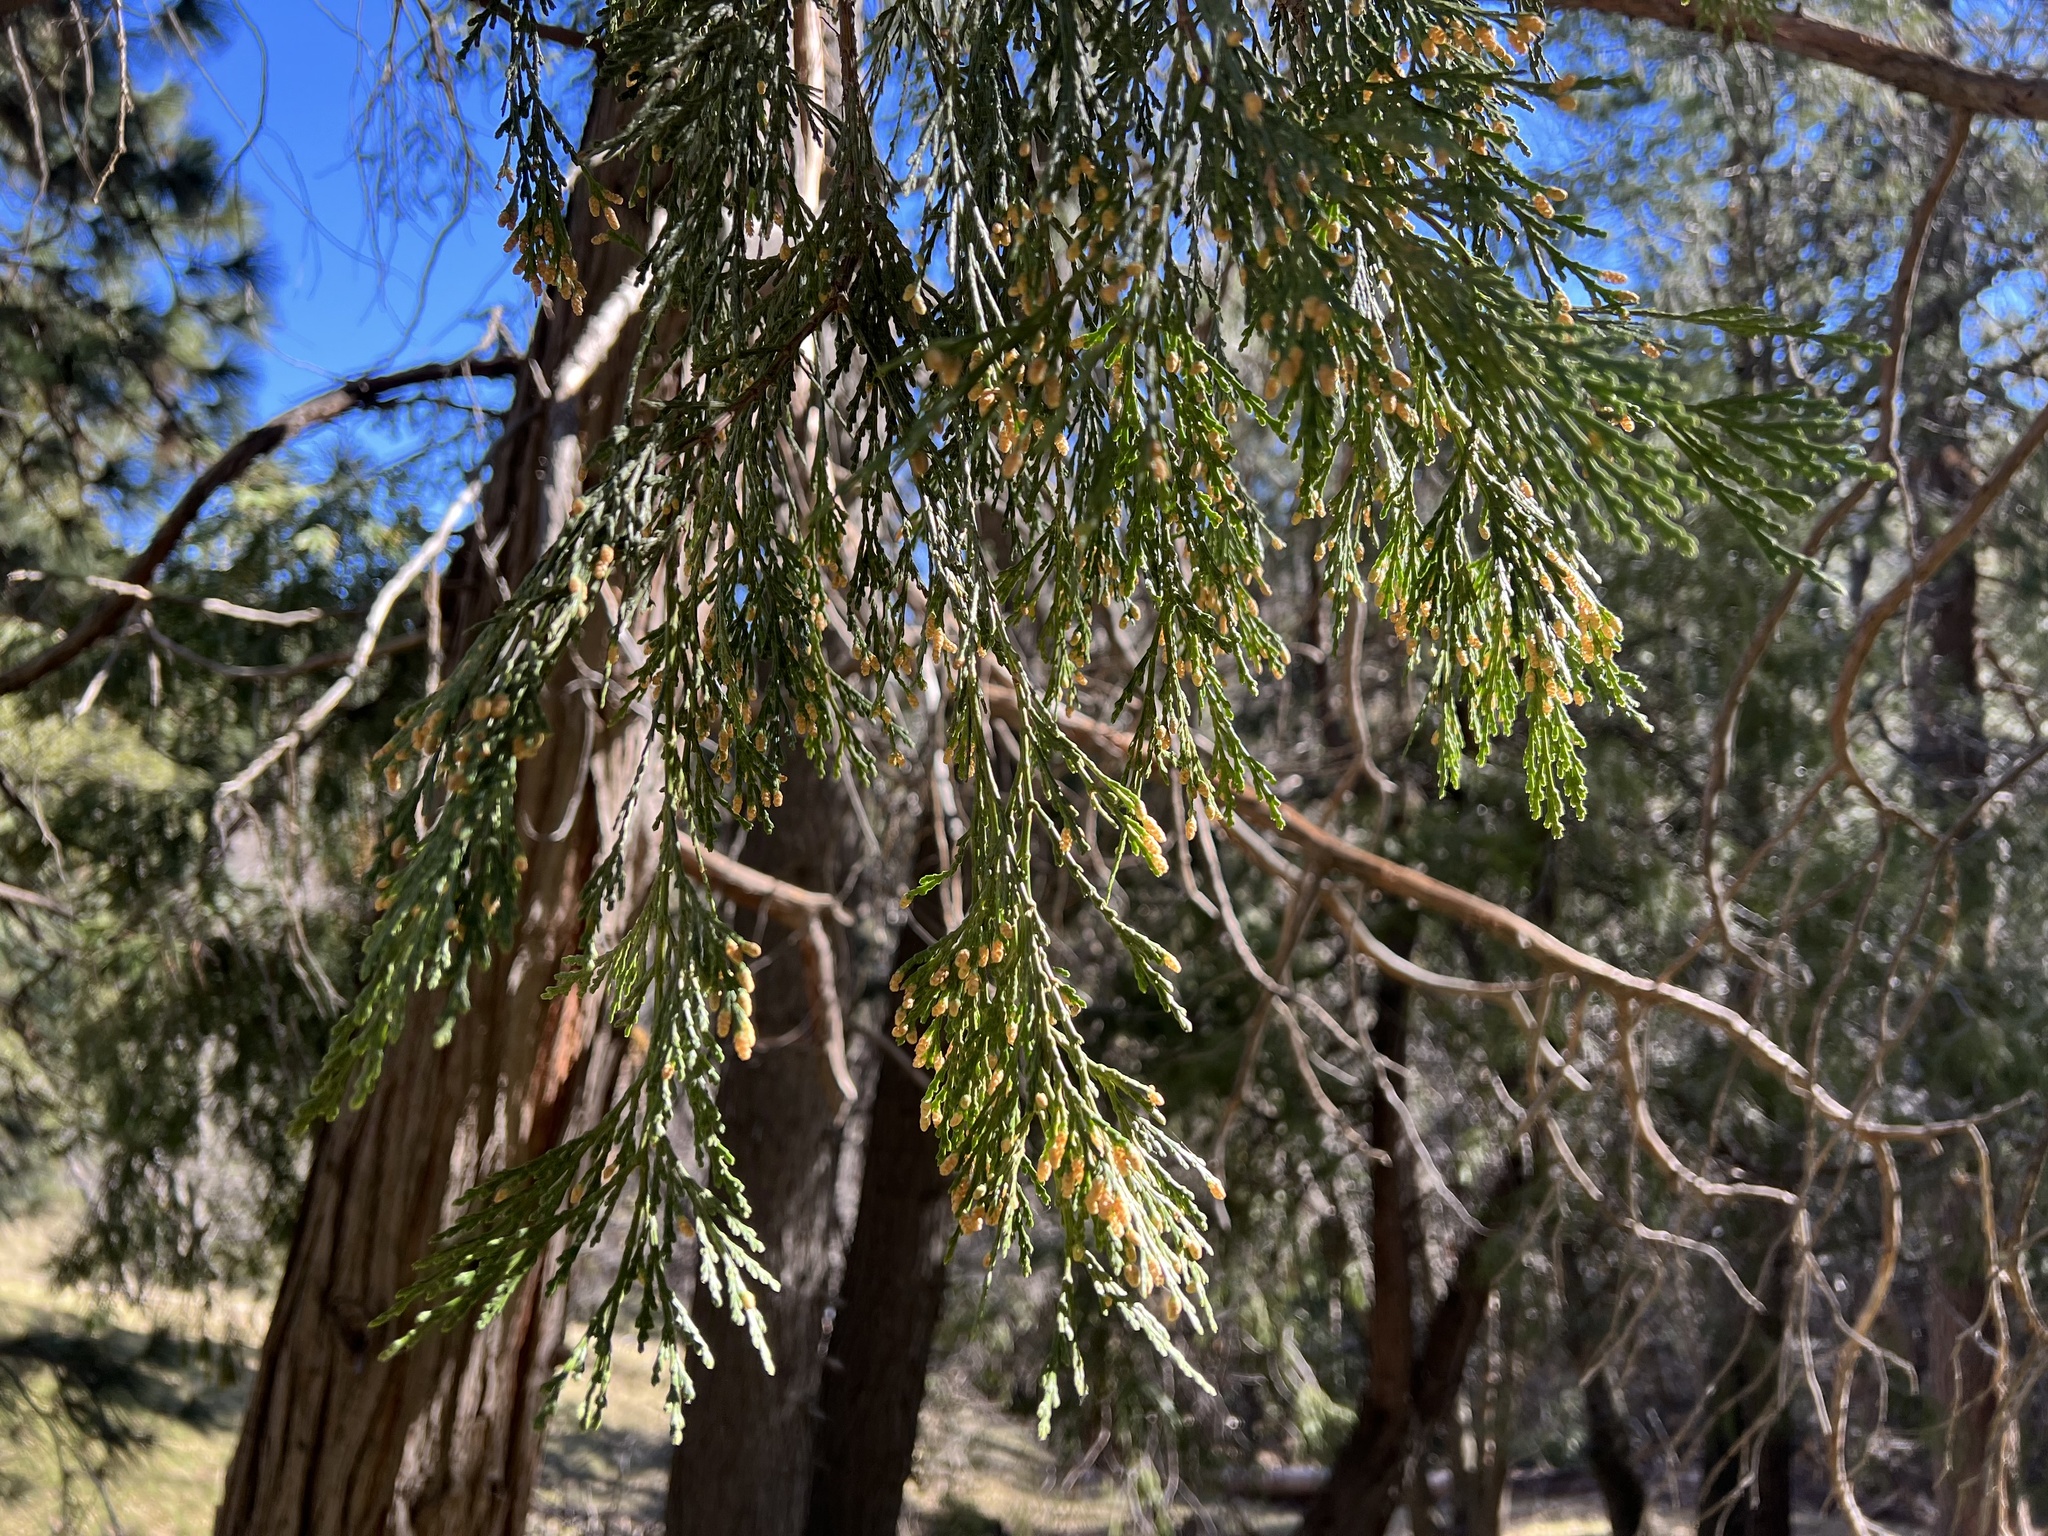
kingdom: Plantae
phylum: Tracheophyta
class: Pinopsida
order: Pinales
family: Cupressaceae
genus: Calocedrus
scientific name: Calocedrus decurrens
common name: Californian incense-cedar
